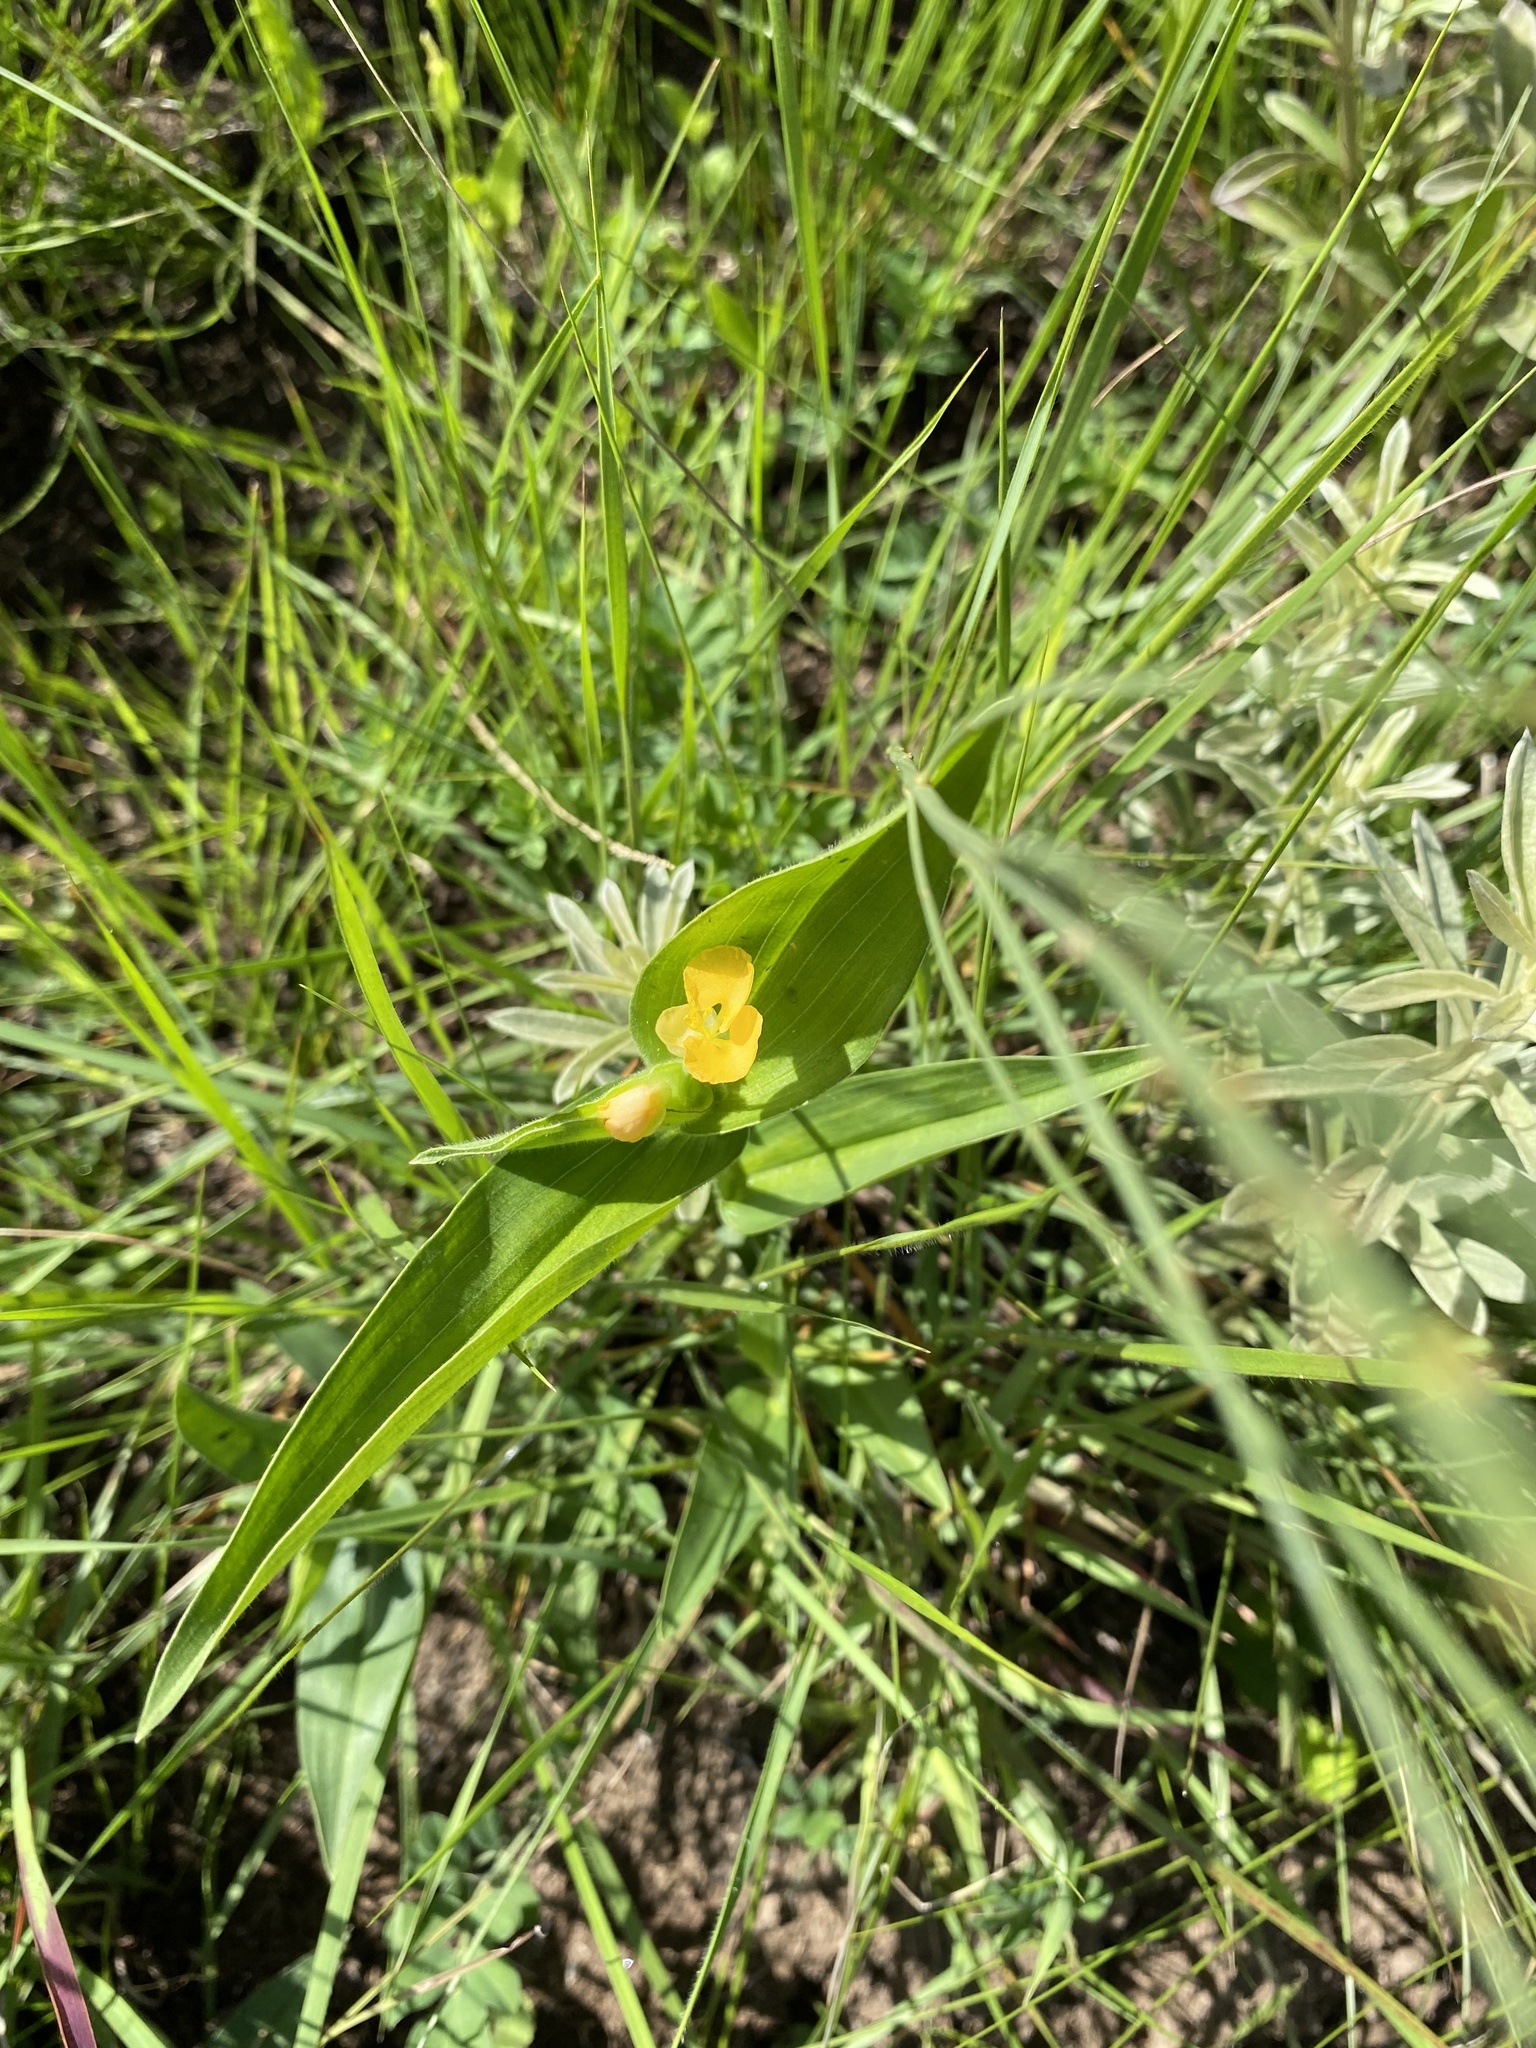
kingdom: Plantae
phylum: Tracheophyta
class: Liliopsida
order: Commelinales
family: Commelinaceae
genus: Commelina
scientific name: Commelina africana
